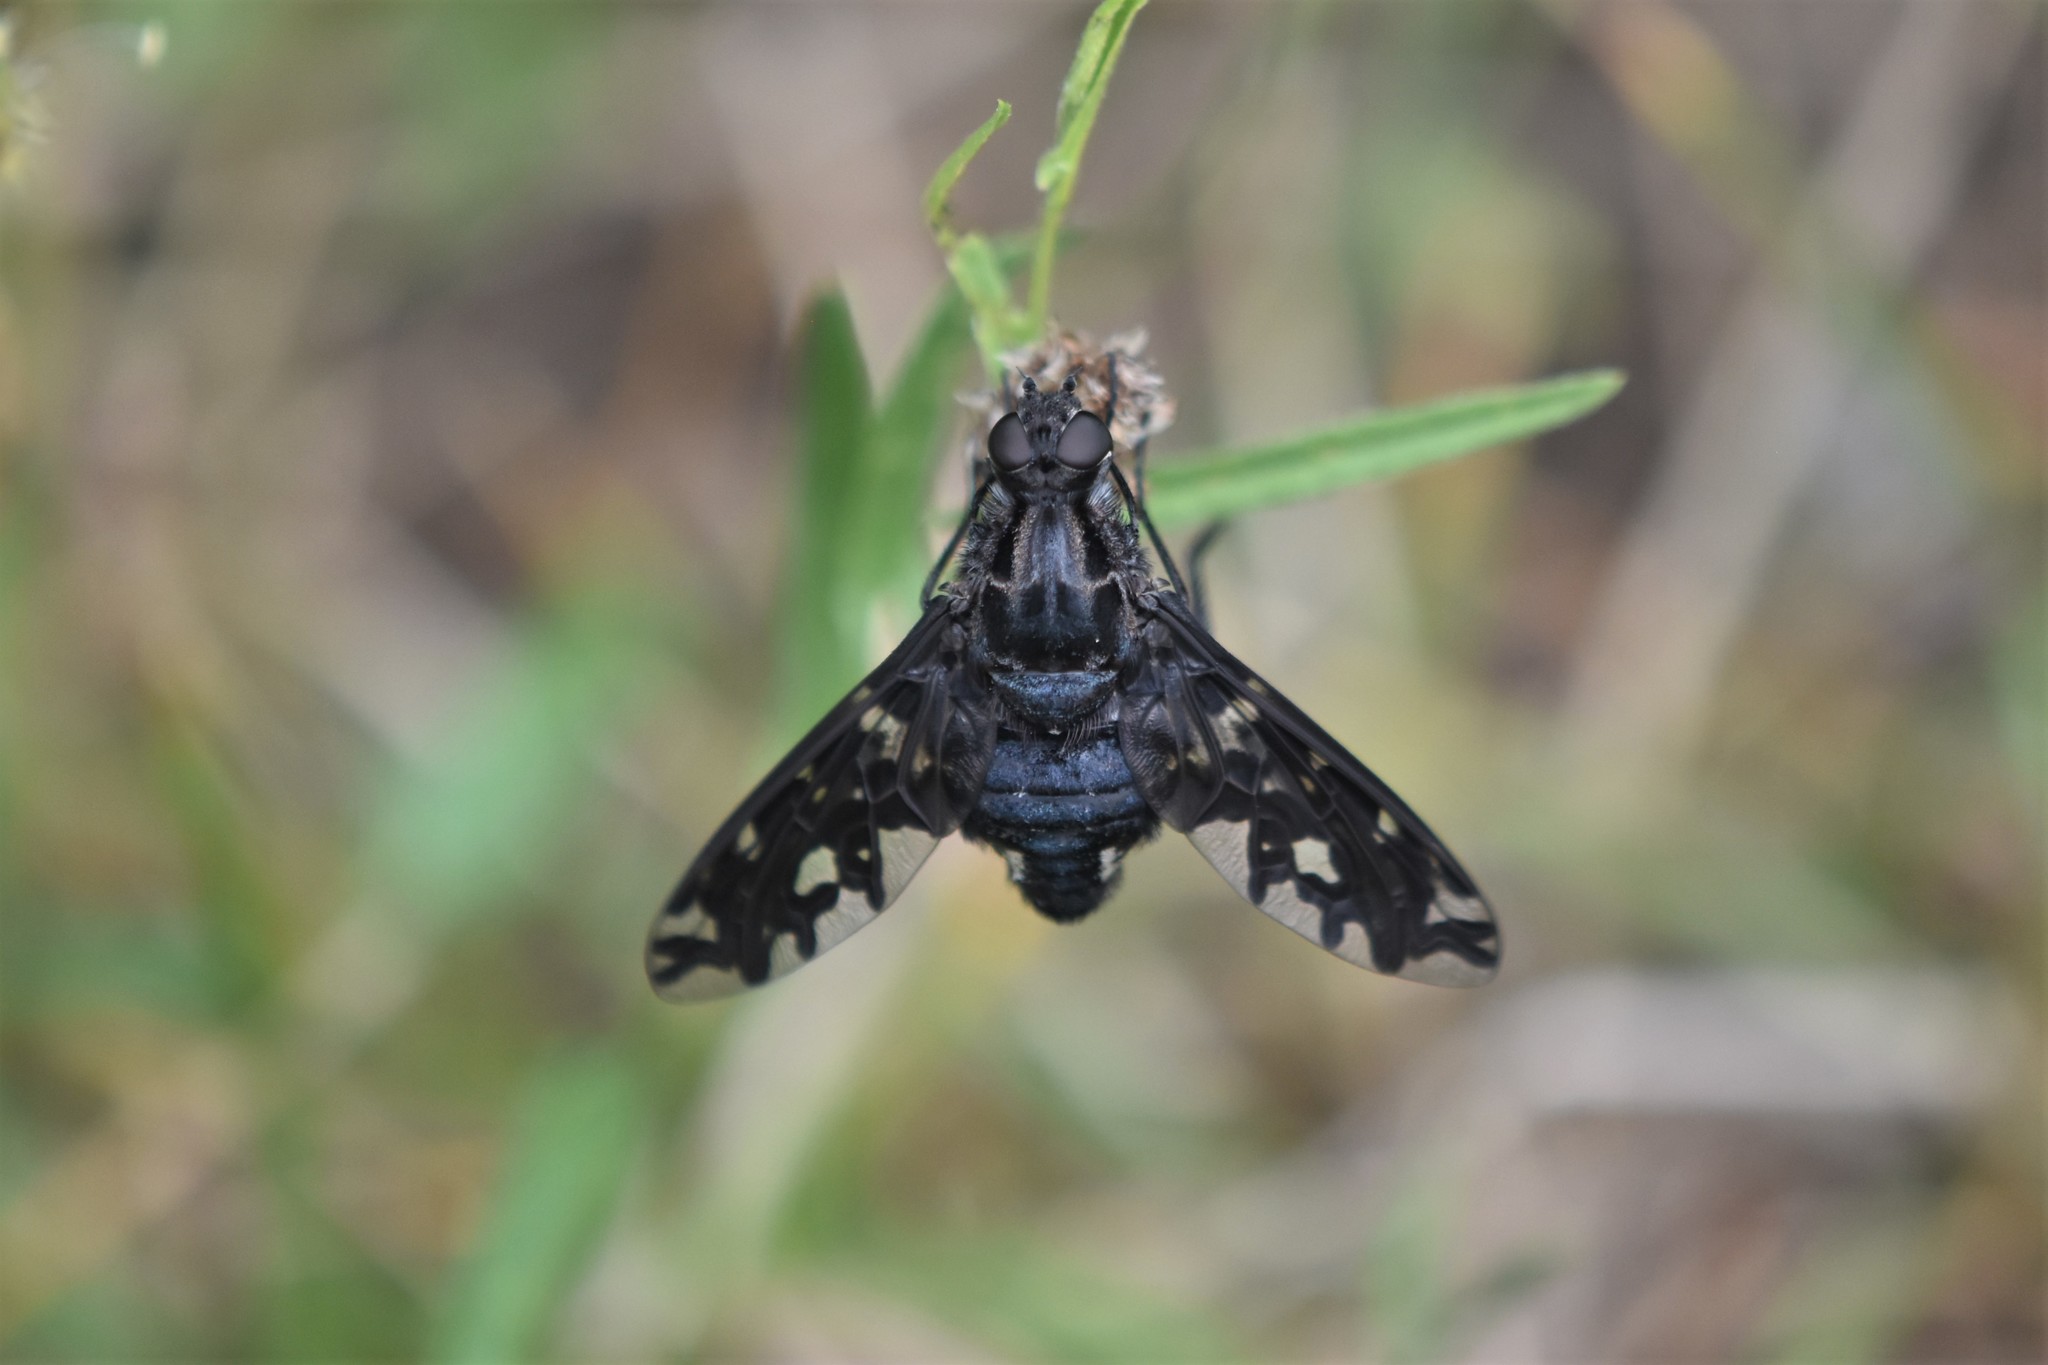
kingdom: Animalia
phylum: Arthropoda
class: Insecta
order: Diptera
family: Bombyliidae
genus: Xenox
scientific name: Xenox tigrinus
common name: Tiger bee fly
